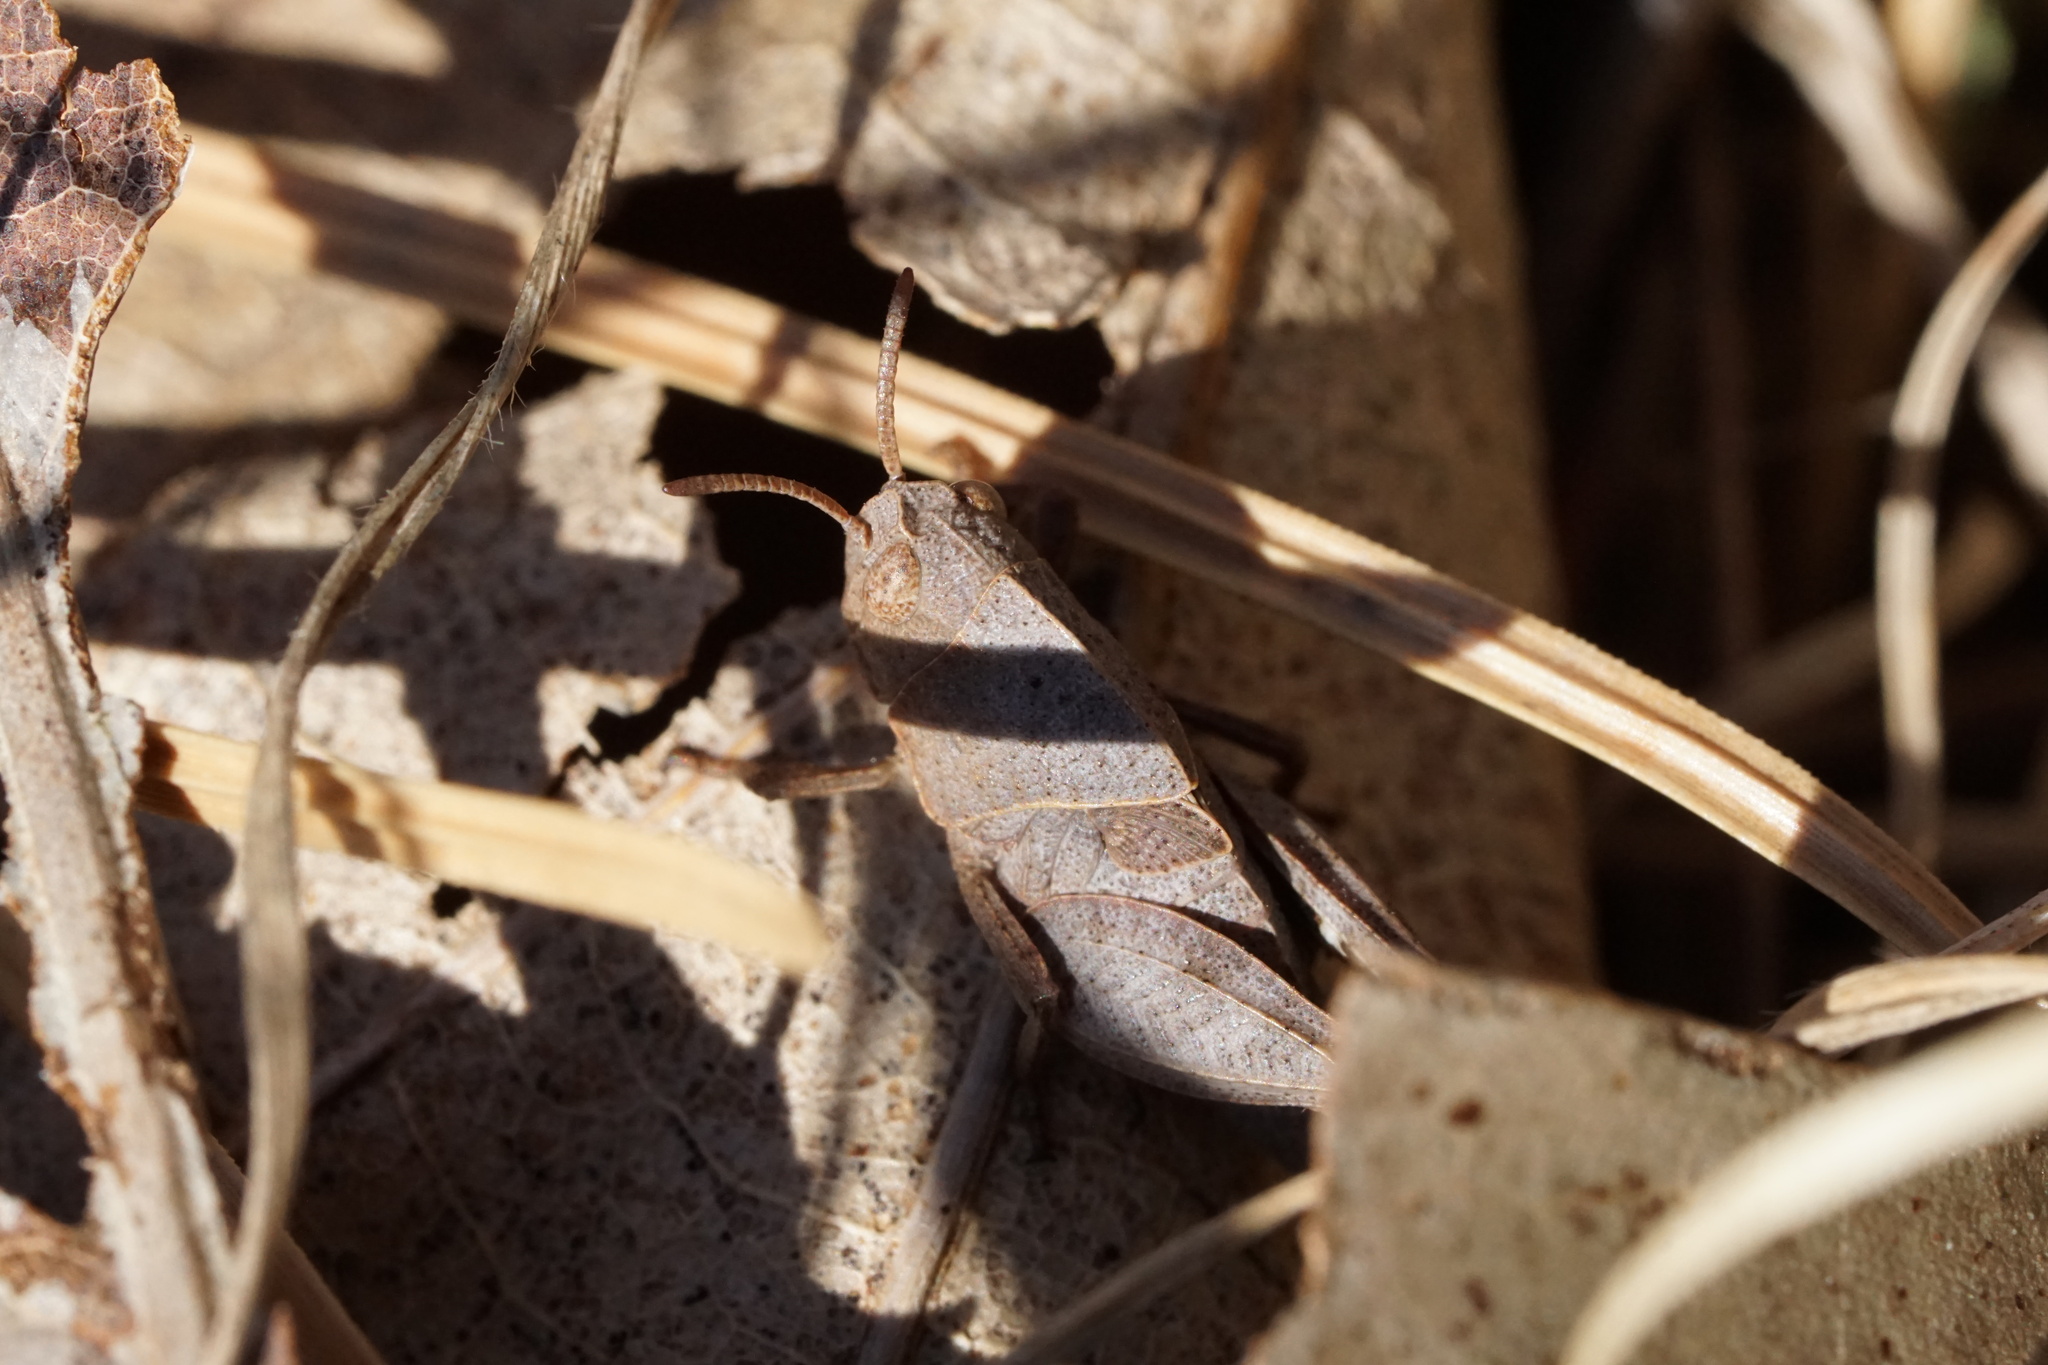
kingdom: Animalia
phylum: Arthropoda
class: Insecta
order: Orthoptera
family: Acrididae
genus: Arphia
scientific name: Arphia sulphurea
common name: Spring yellow-winged locust
